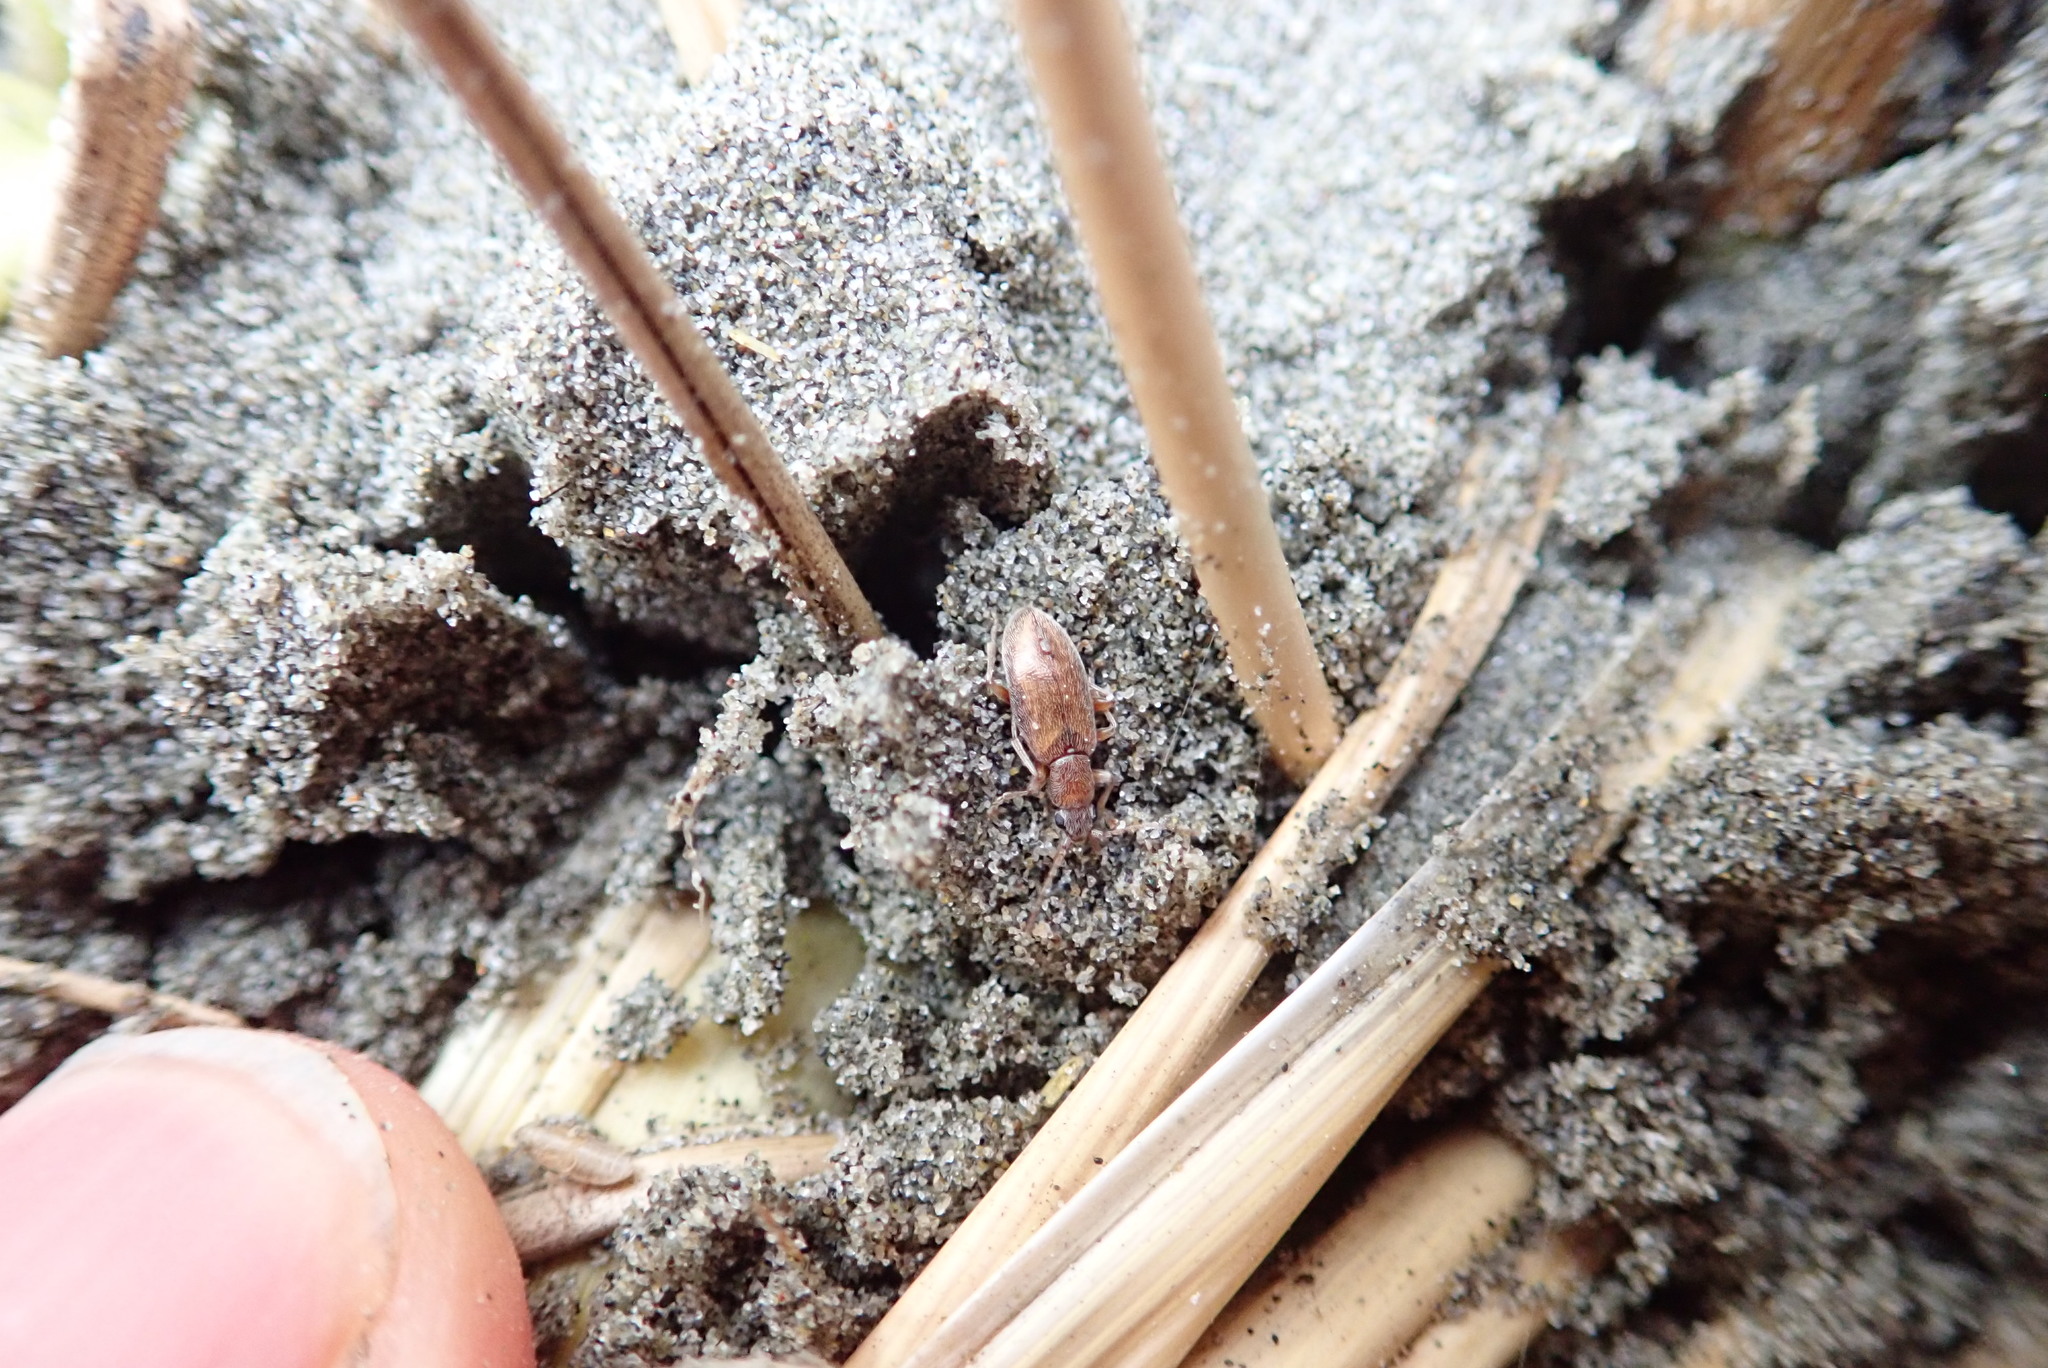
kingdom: Animalia
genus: Lagrioda
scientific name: Lagrioda brounii
